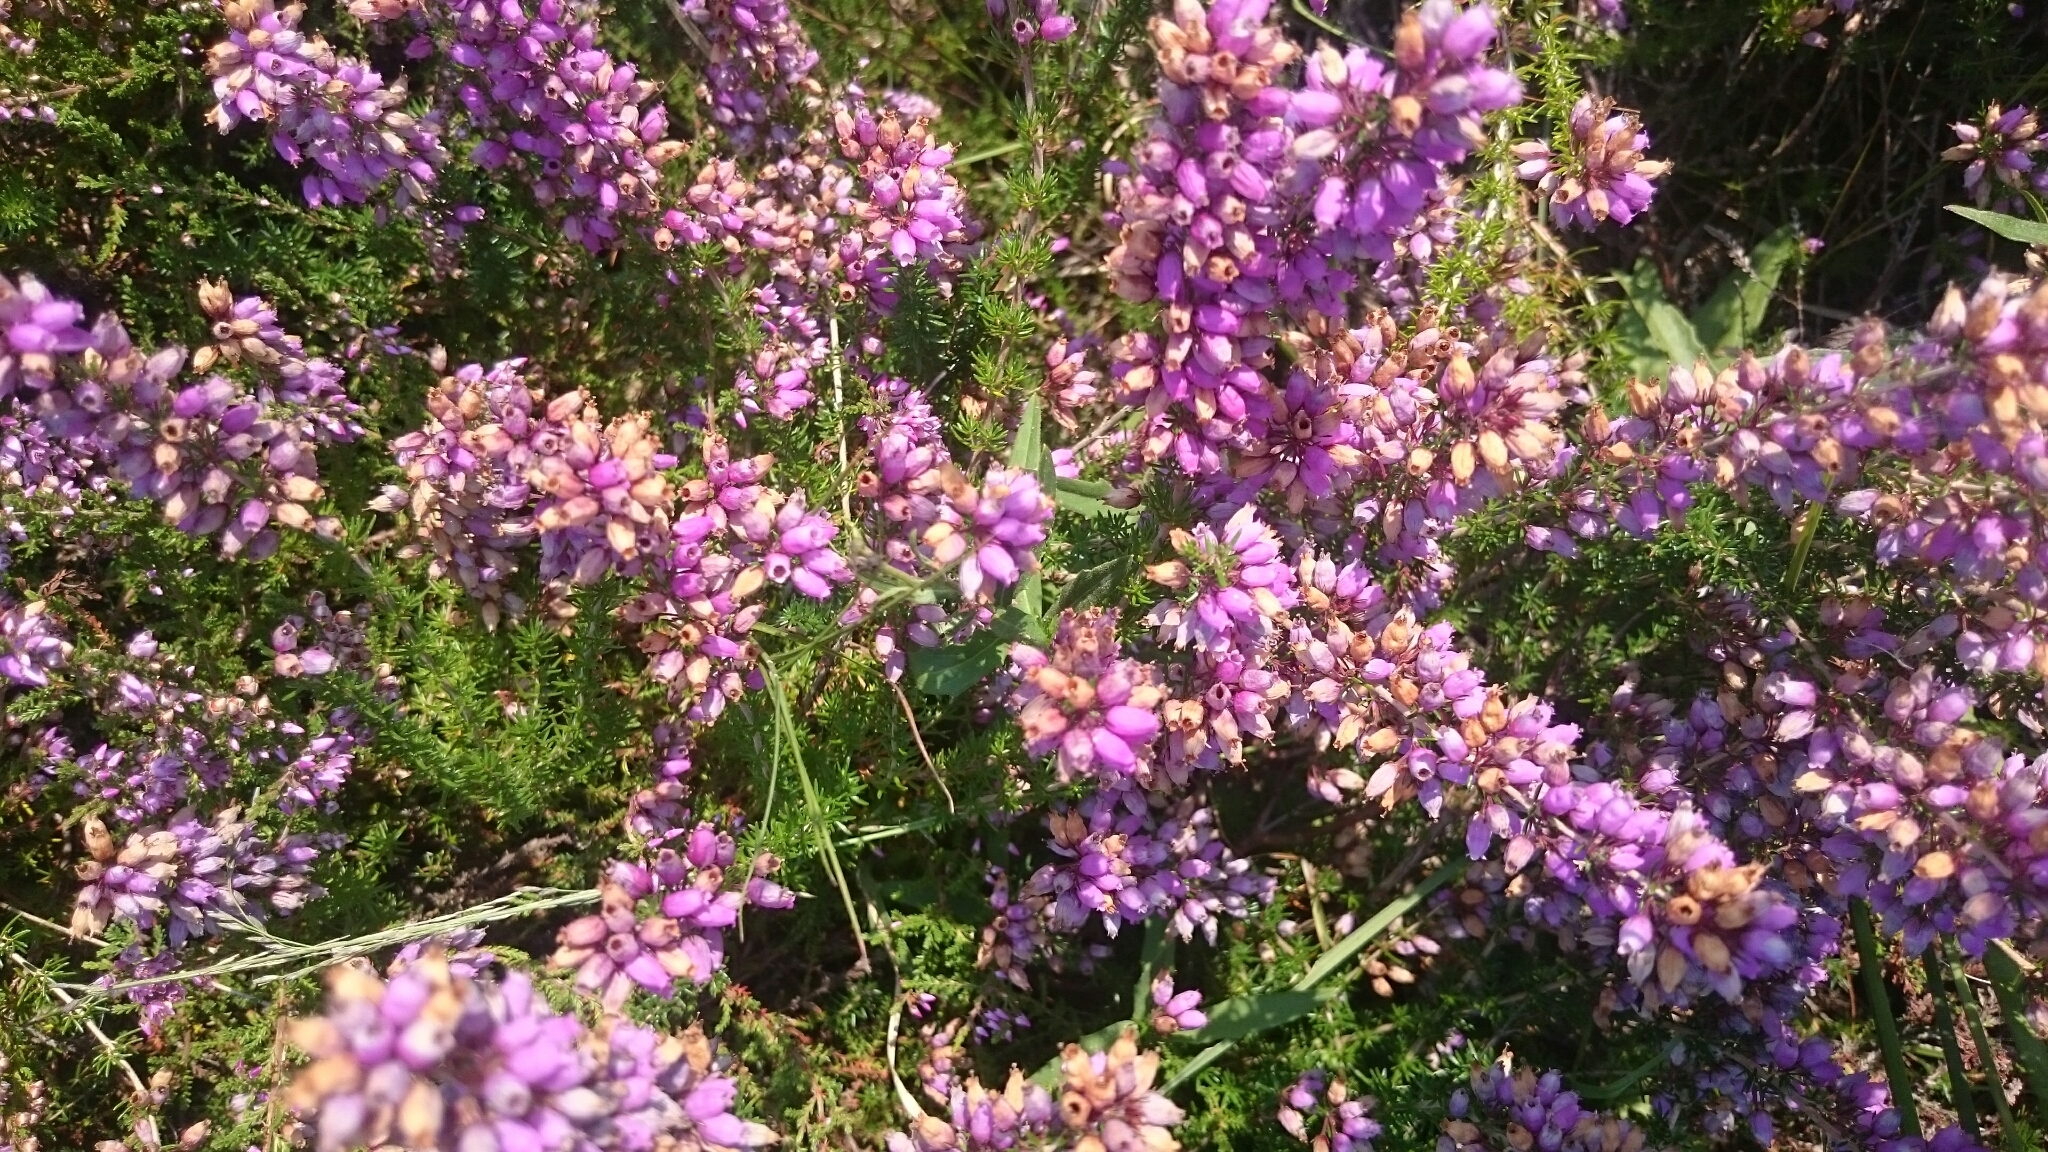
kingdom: Plantae
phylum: Tracheophyta
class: Magnoliopsida
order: Ericales
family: Ericaceae
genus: Erica
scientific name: Erica cinerea
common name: Bell heather
